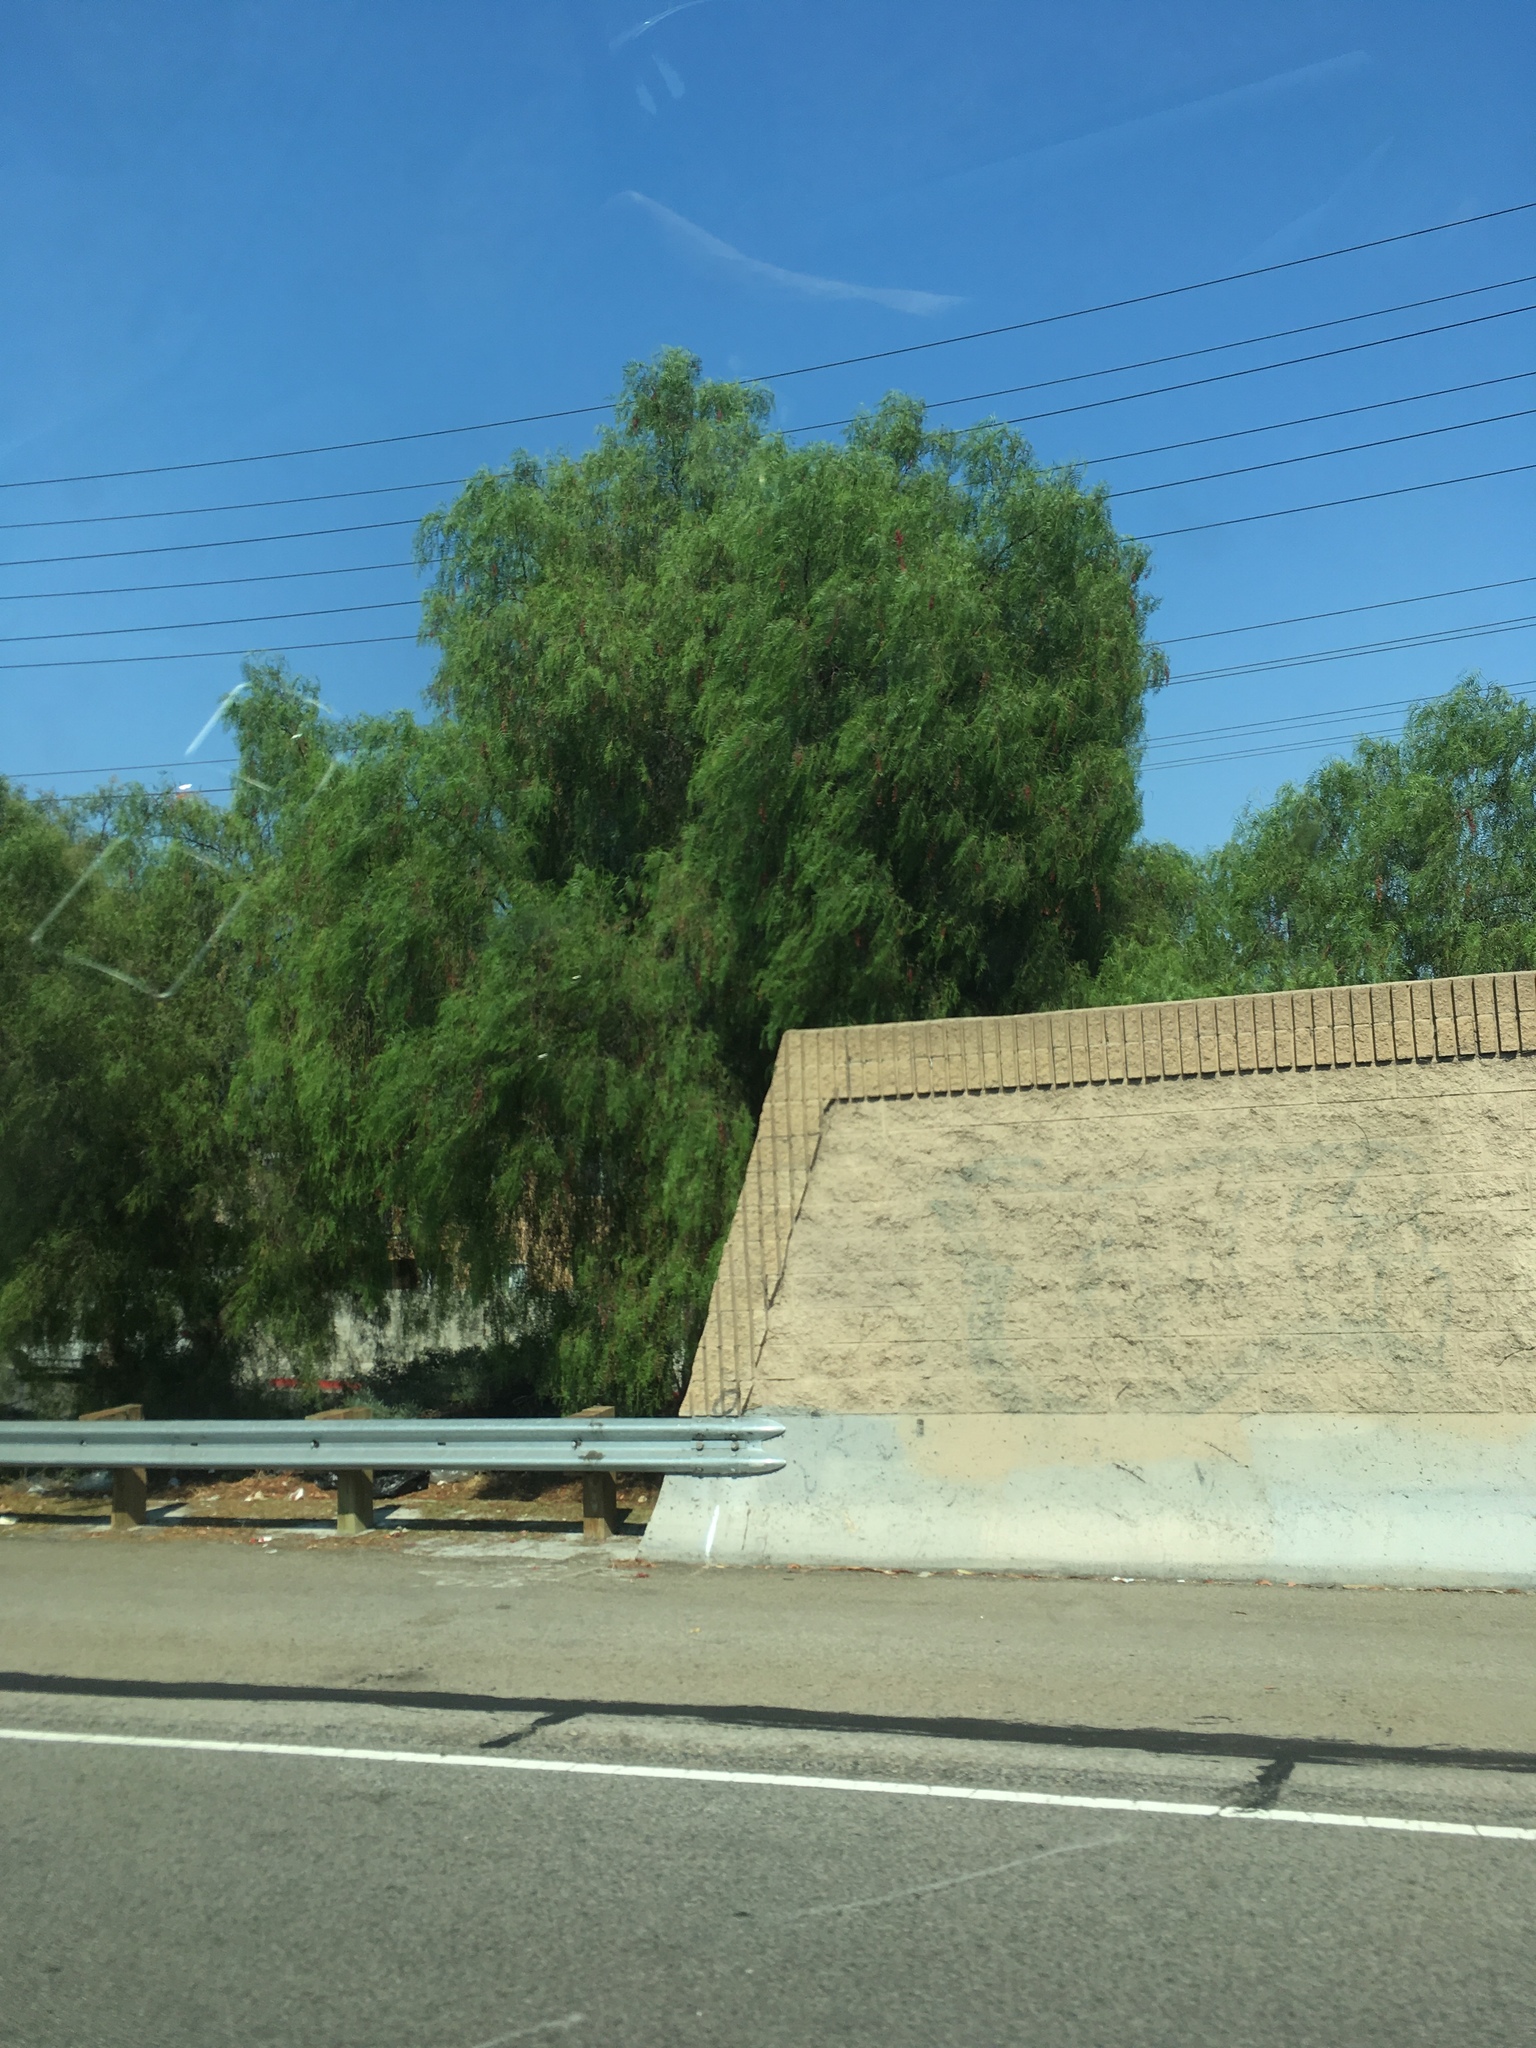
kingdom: Plantae
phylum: Tracheophyta
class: Magnoliopsida
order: Sapindales
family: Anacardiaceae
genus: Schinus
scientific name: Schinus molle
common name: Peruvian peppertree
